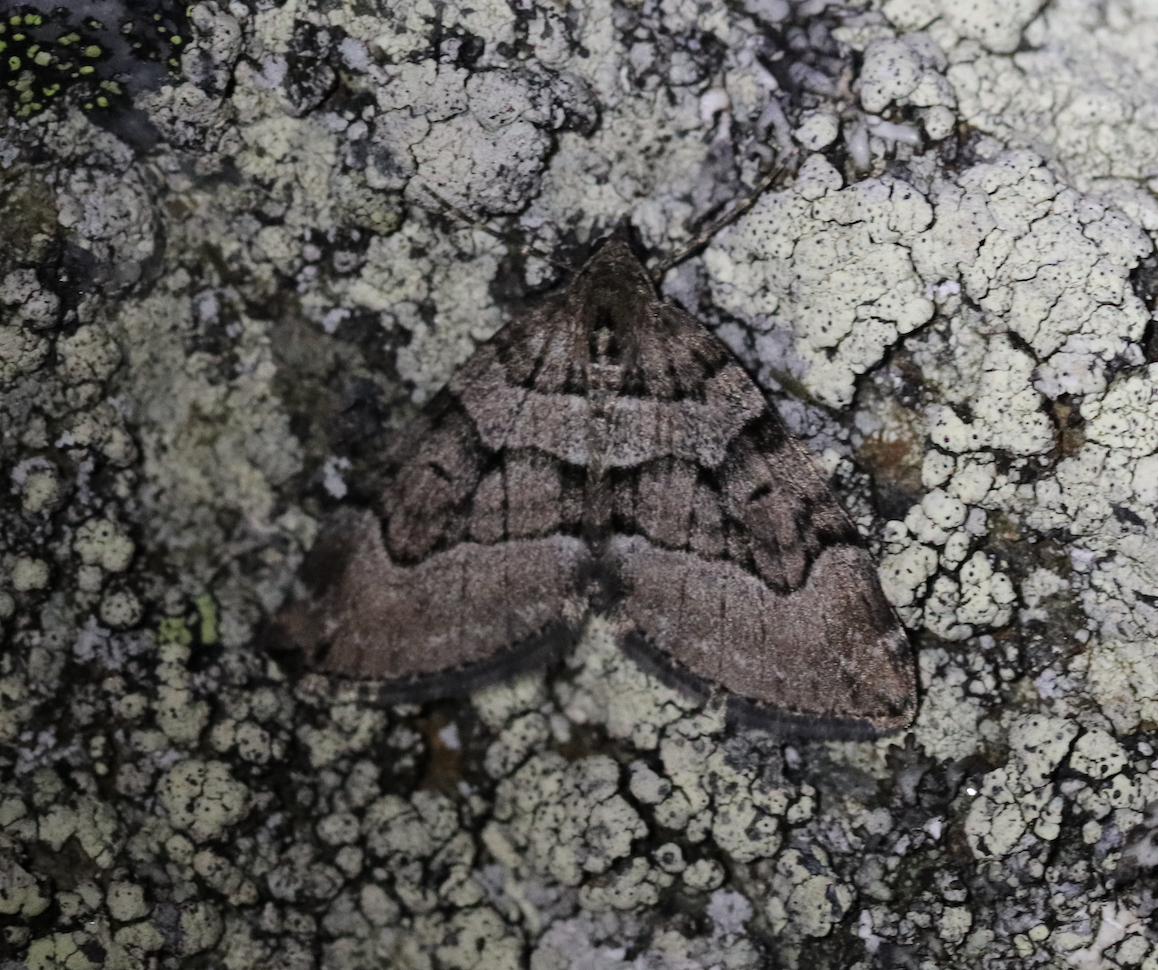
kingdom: Animalia
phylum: Arthropoda
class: Insecta
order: Lepidoptera
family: Geometridae
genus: Thera
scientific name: Thera cognata
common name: Chestnut-coloured carpet
